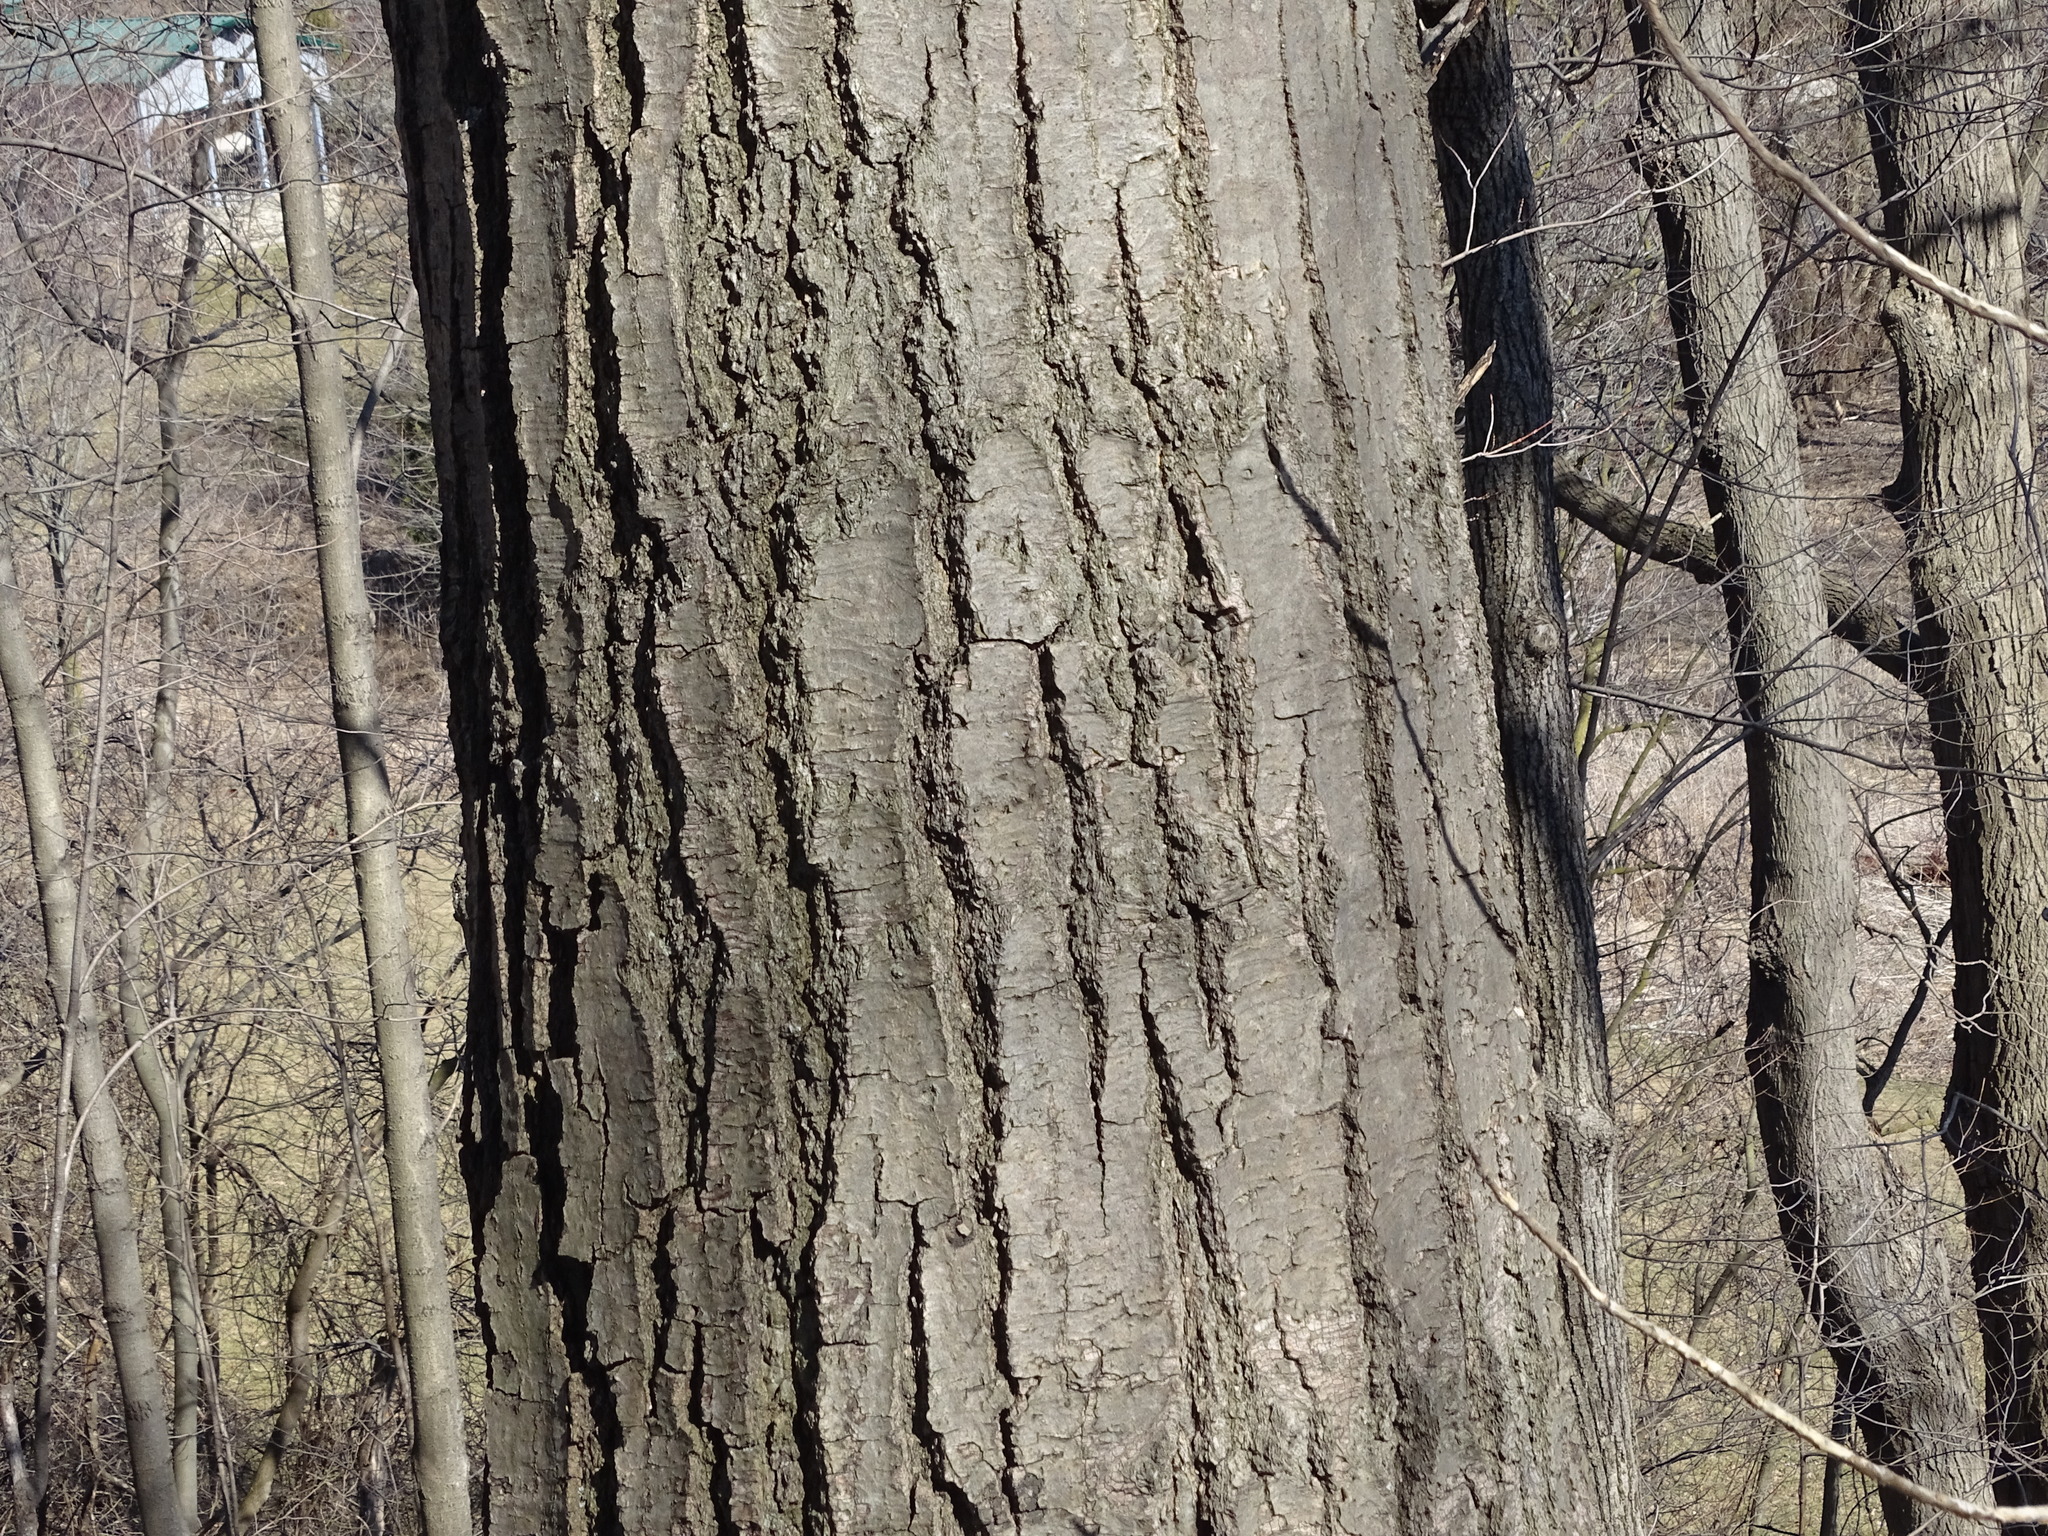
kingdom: Plantae
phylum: Tracheophyta
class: Magnoliopsida
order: Fagales
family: Fagaceae
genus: Quercus
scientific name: Quercus rubra
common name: Red oak
